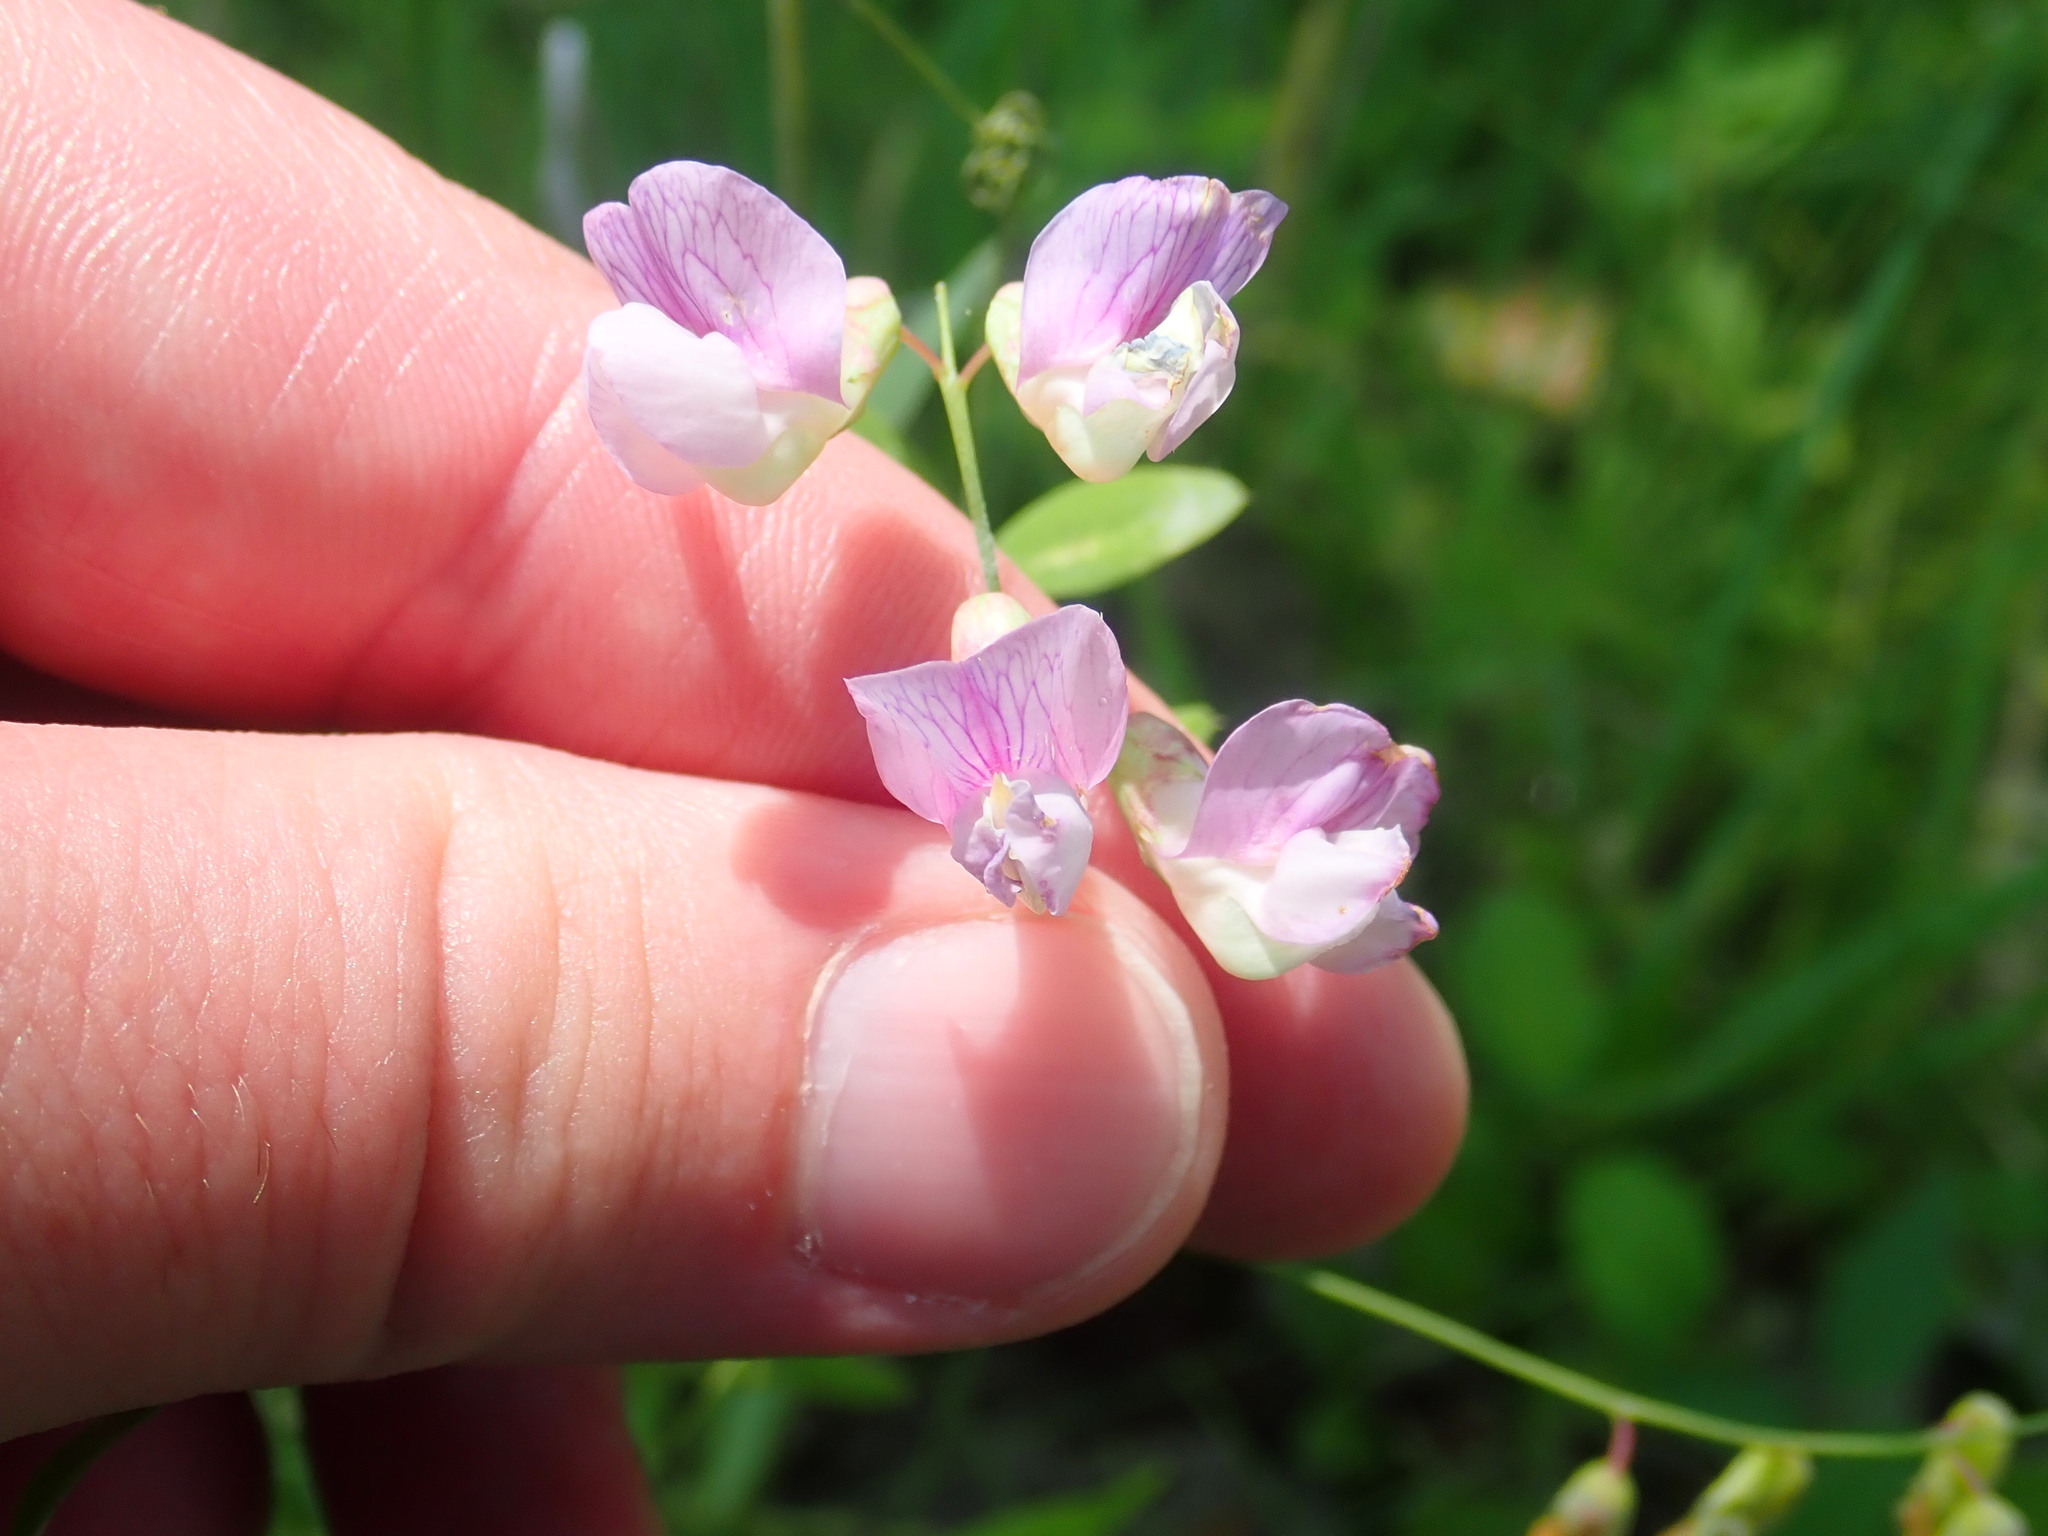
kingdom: Plantae
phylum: Tracheophyta
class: Magnoliopsida
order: Fabales
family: Fabaceae
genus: Lathyrus
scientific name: Lathyrus palustris
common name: Marsh pea
